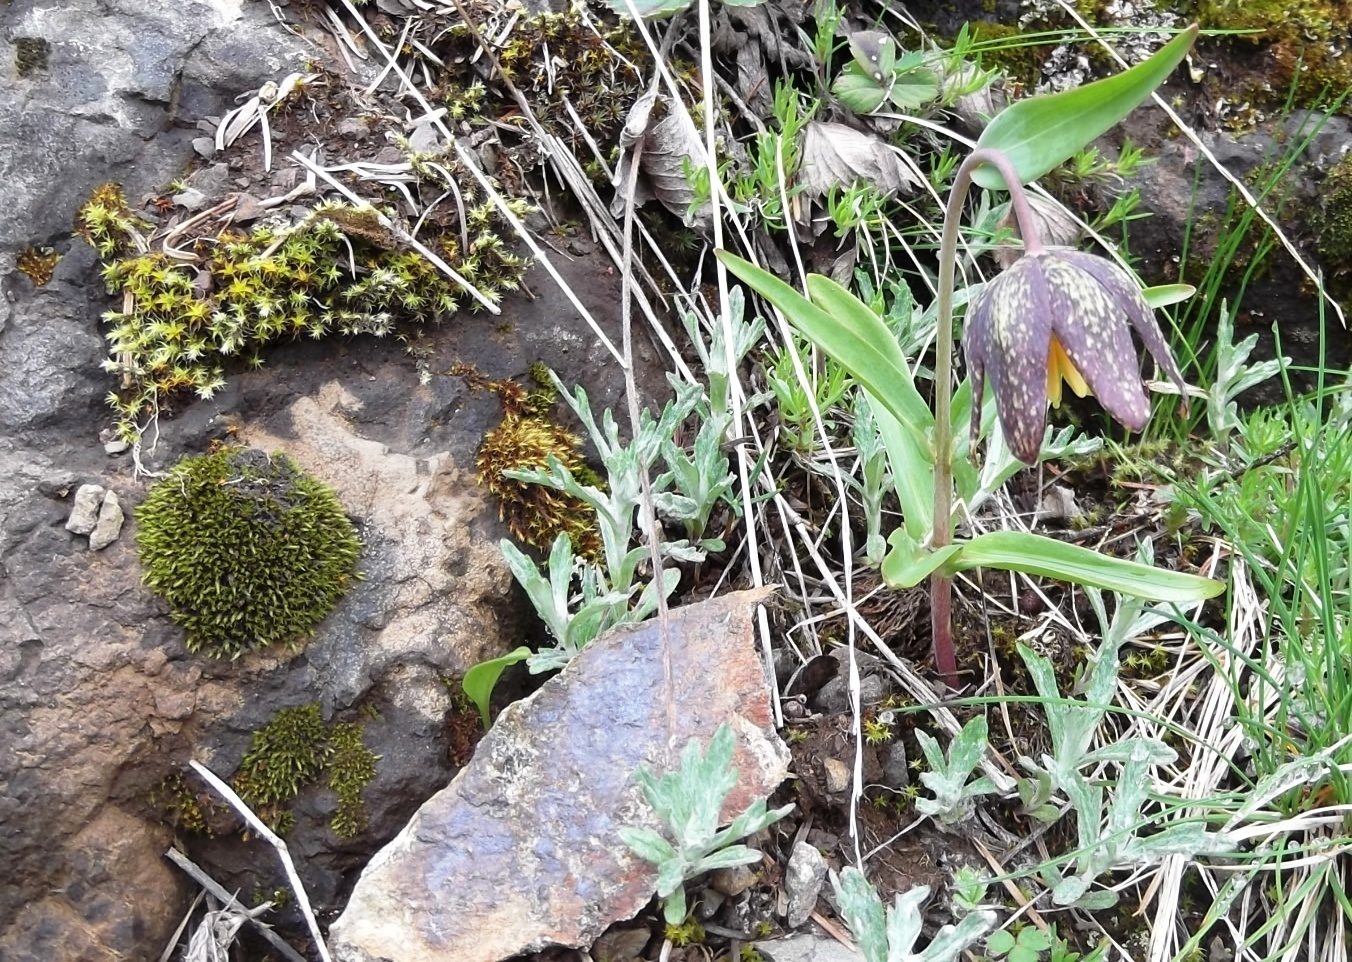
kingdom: Plantae
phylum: Tracheophyta
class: Liliopsida
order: Liliales
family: Liliaceae
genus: Fritillaria
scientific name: Fritillaria affinis
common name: Ojai fritillary
